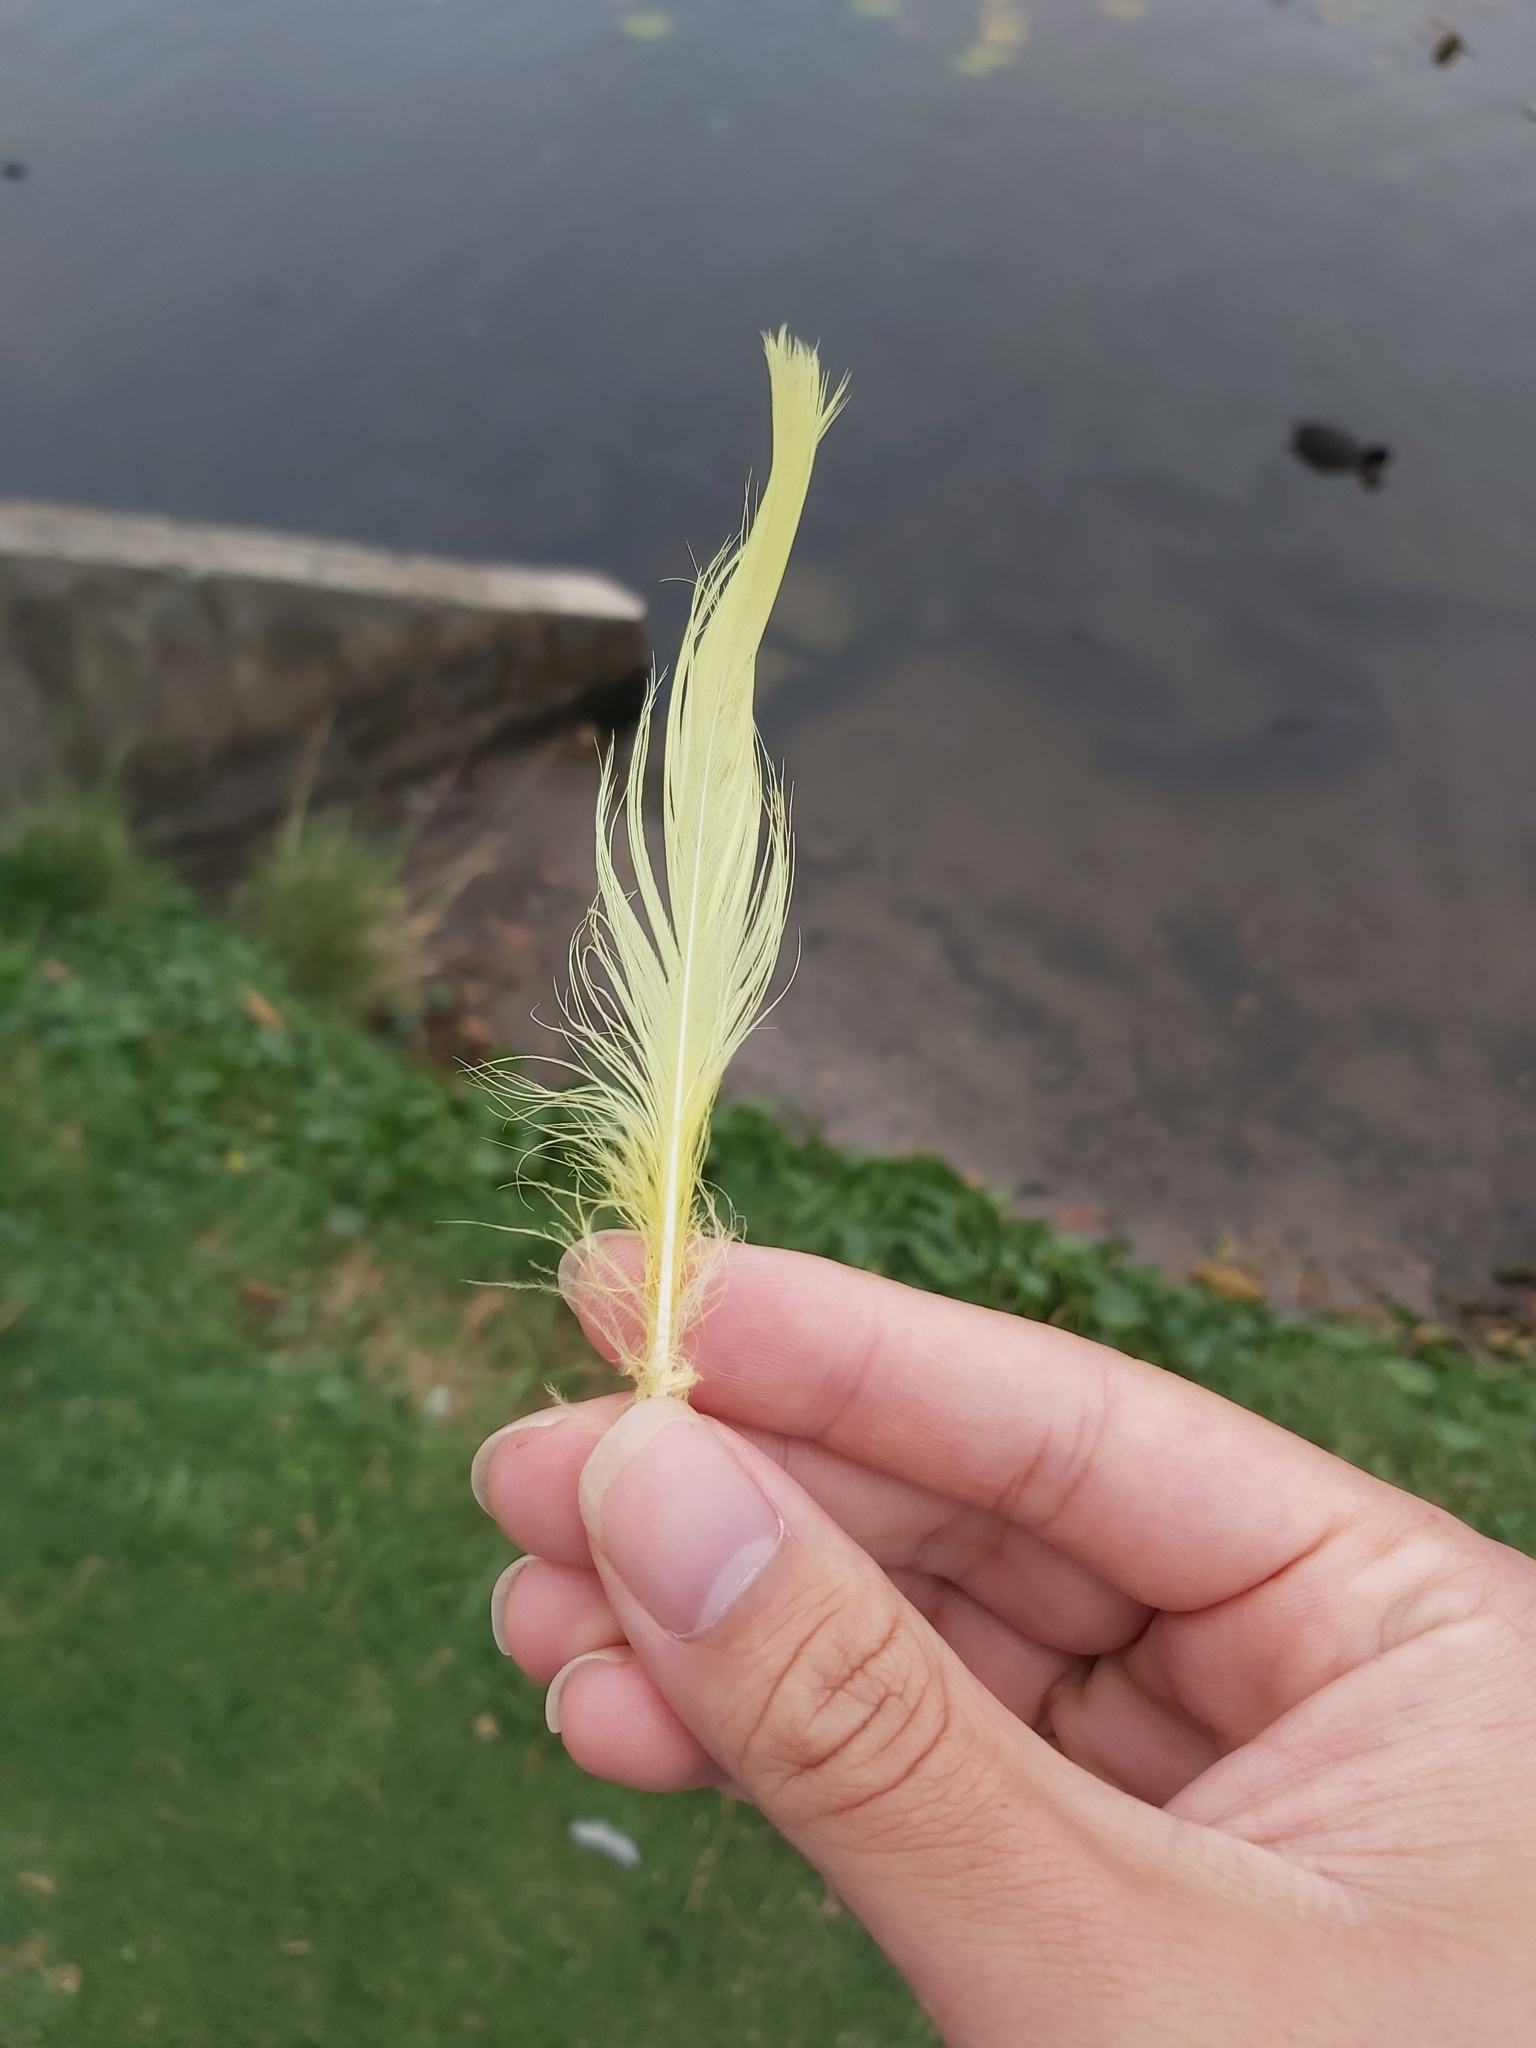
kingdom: Animalia
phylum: Chordata
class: Aves
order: Psittaciformes
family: Psittacidae
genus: Cacatua
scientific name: Cacatua galerita
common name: Sulphur-crested cockatoo
